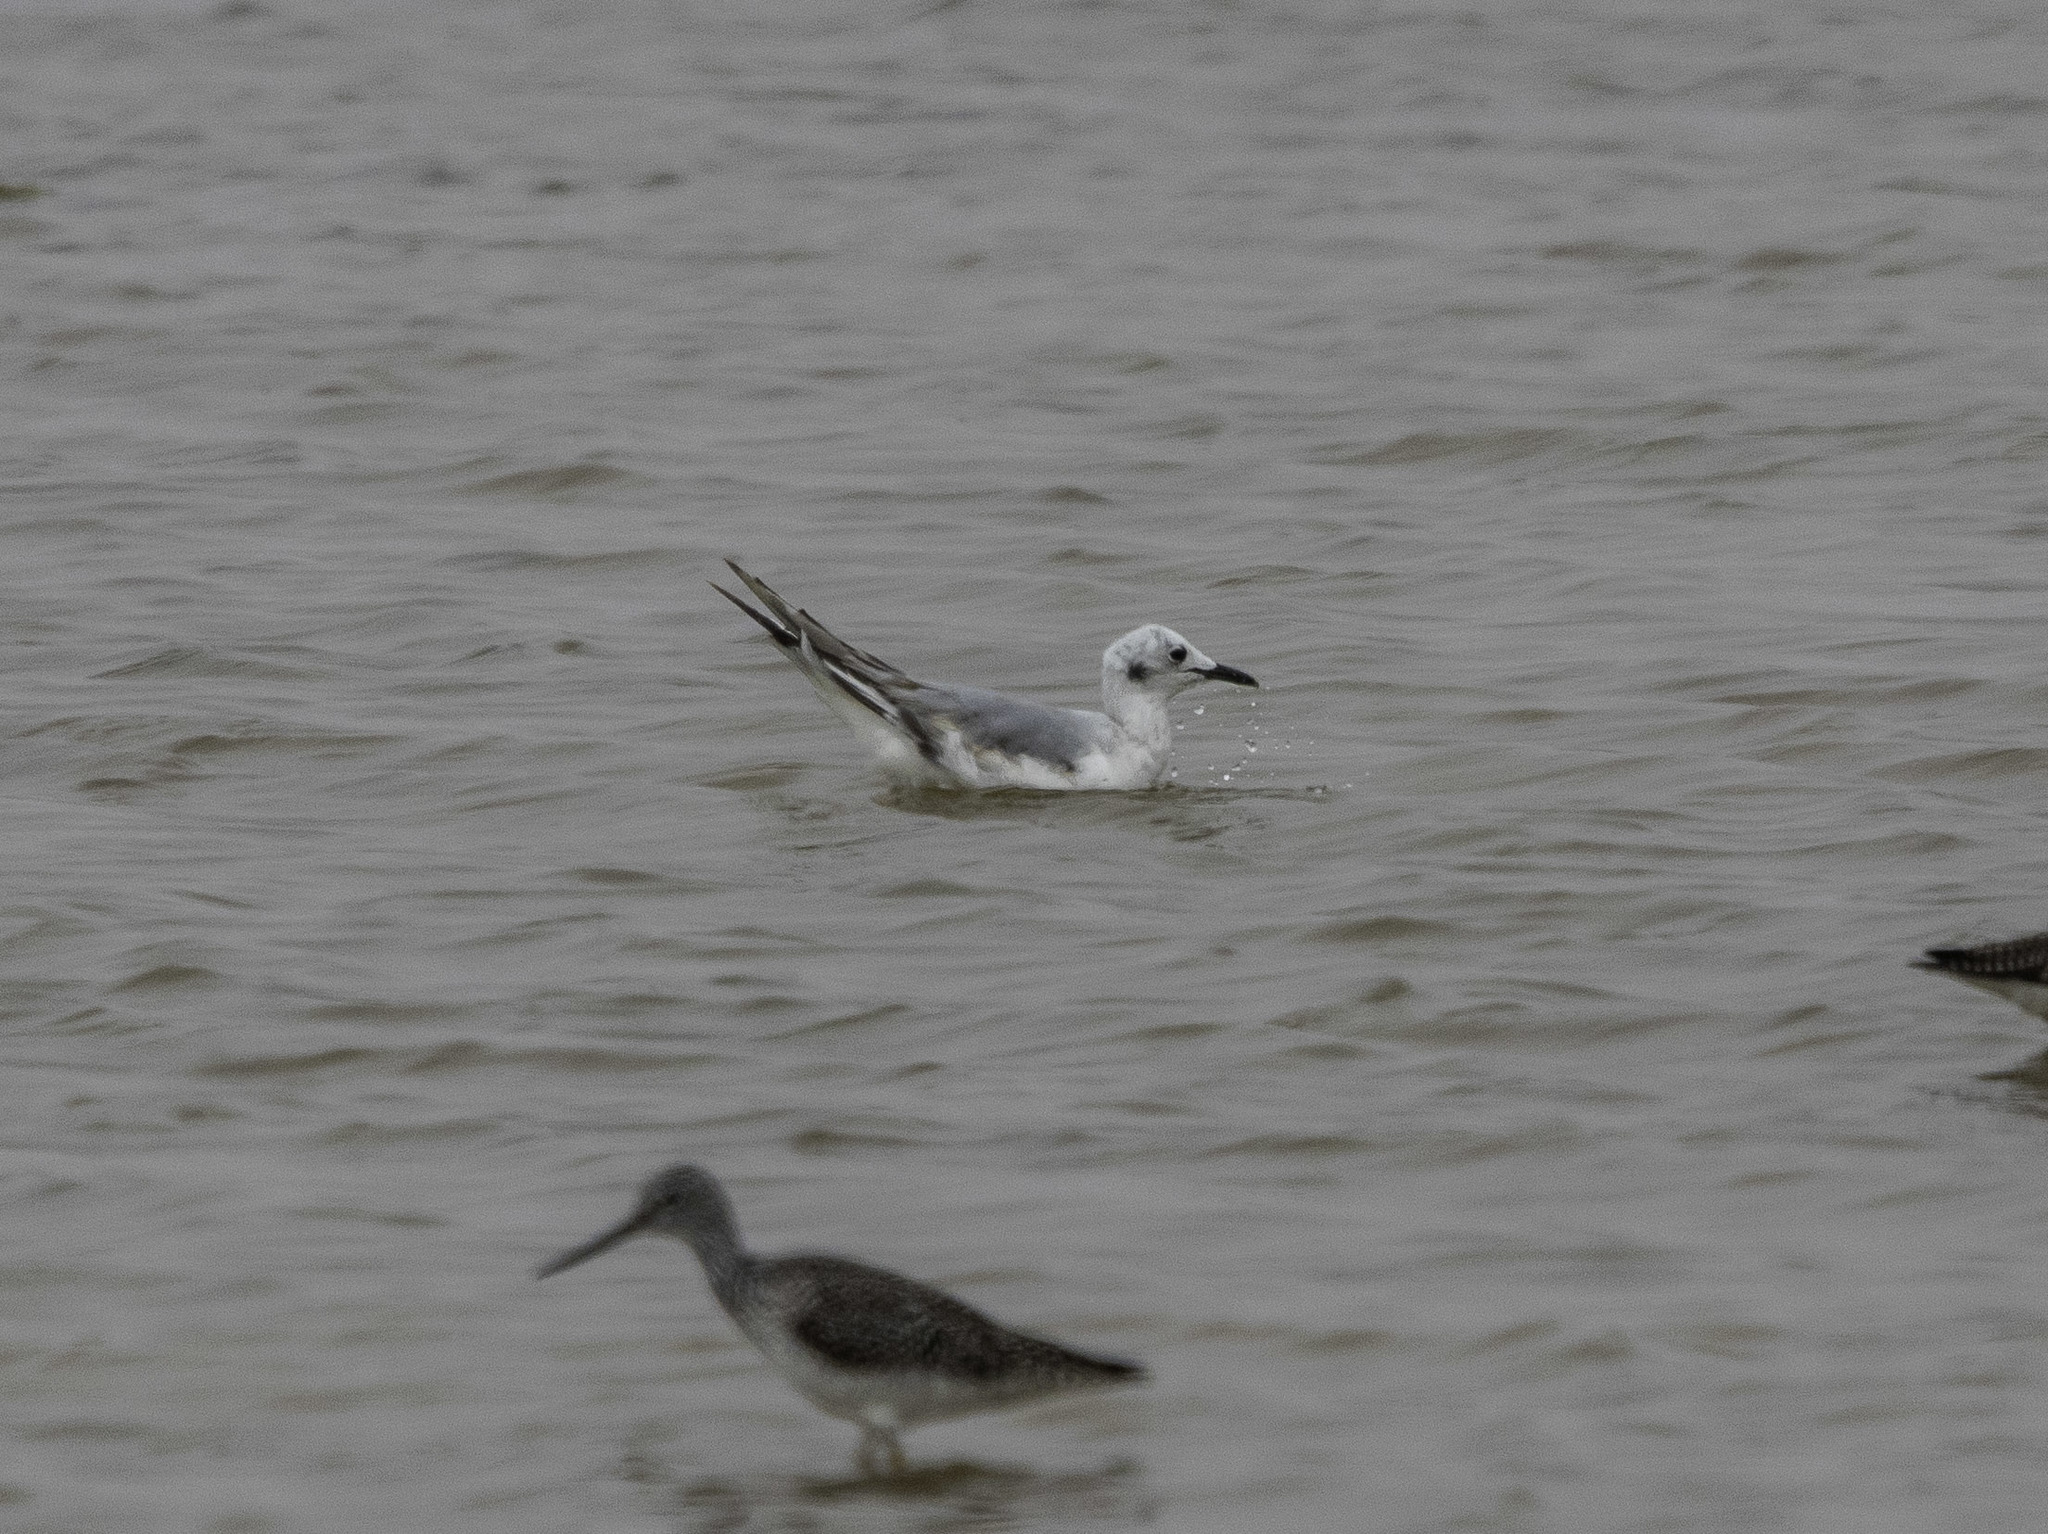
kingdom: Animalia
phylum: Chordata
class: Aves
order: Charadriiformes
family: Laridae
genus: Chroicocephalus
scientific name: Chroicocephalus philadelphia
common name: Bonaparte's gull
